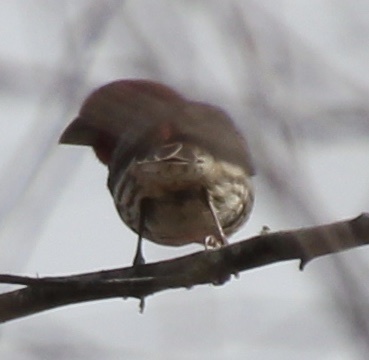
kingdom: Animalia
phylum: Chordata
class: Aves
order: Passeriformes
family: Fringillidae
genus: Haemorhous
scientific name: Haemorhous mexicanus
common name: House finch
